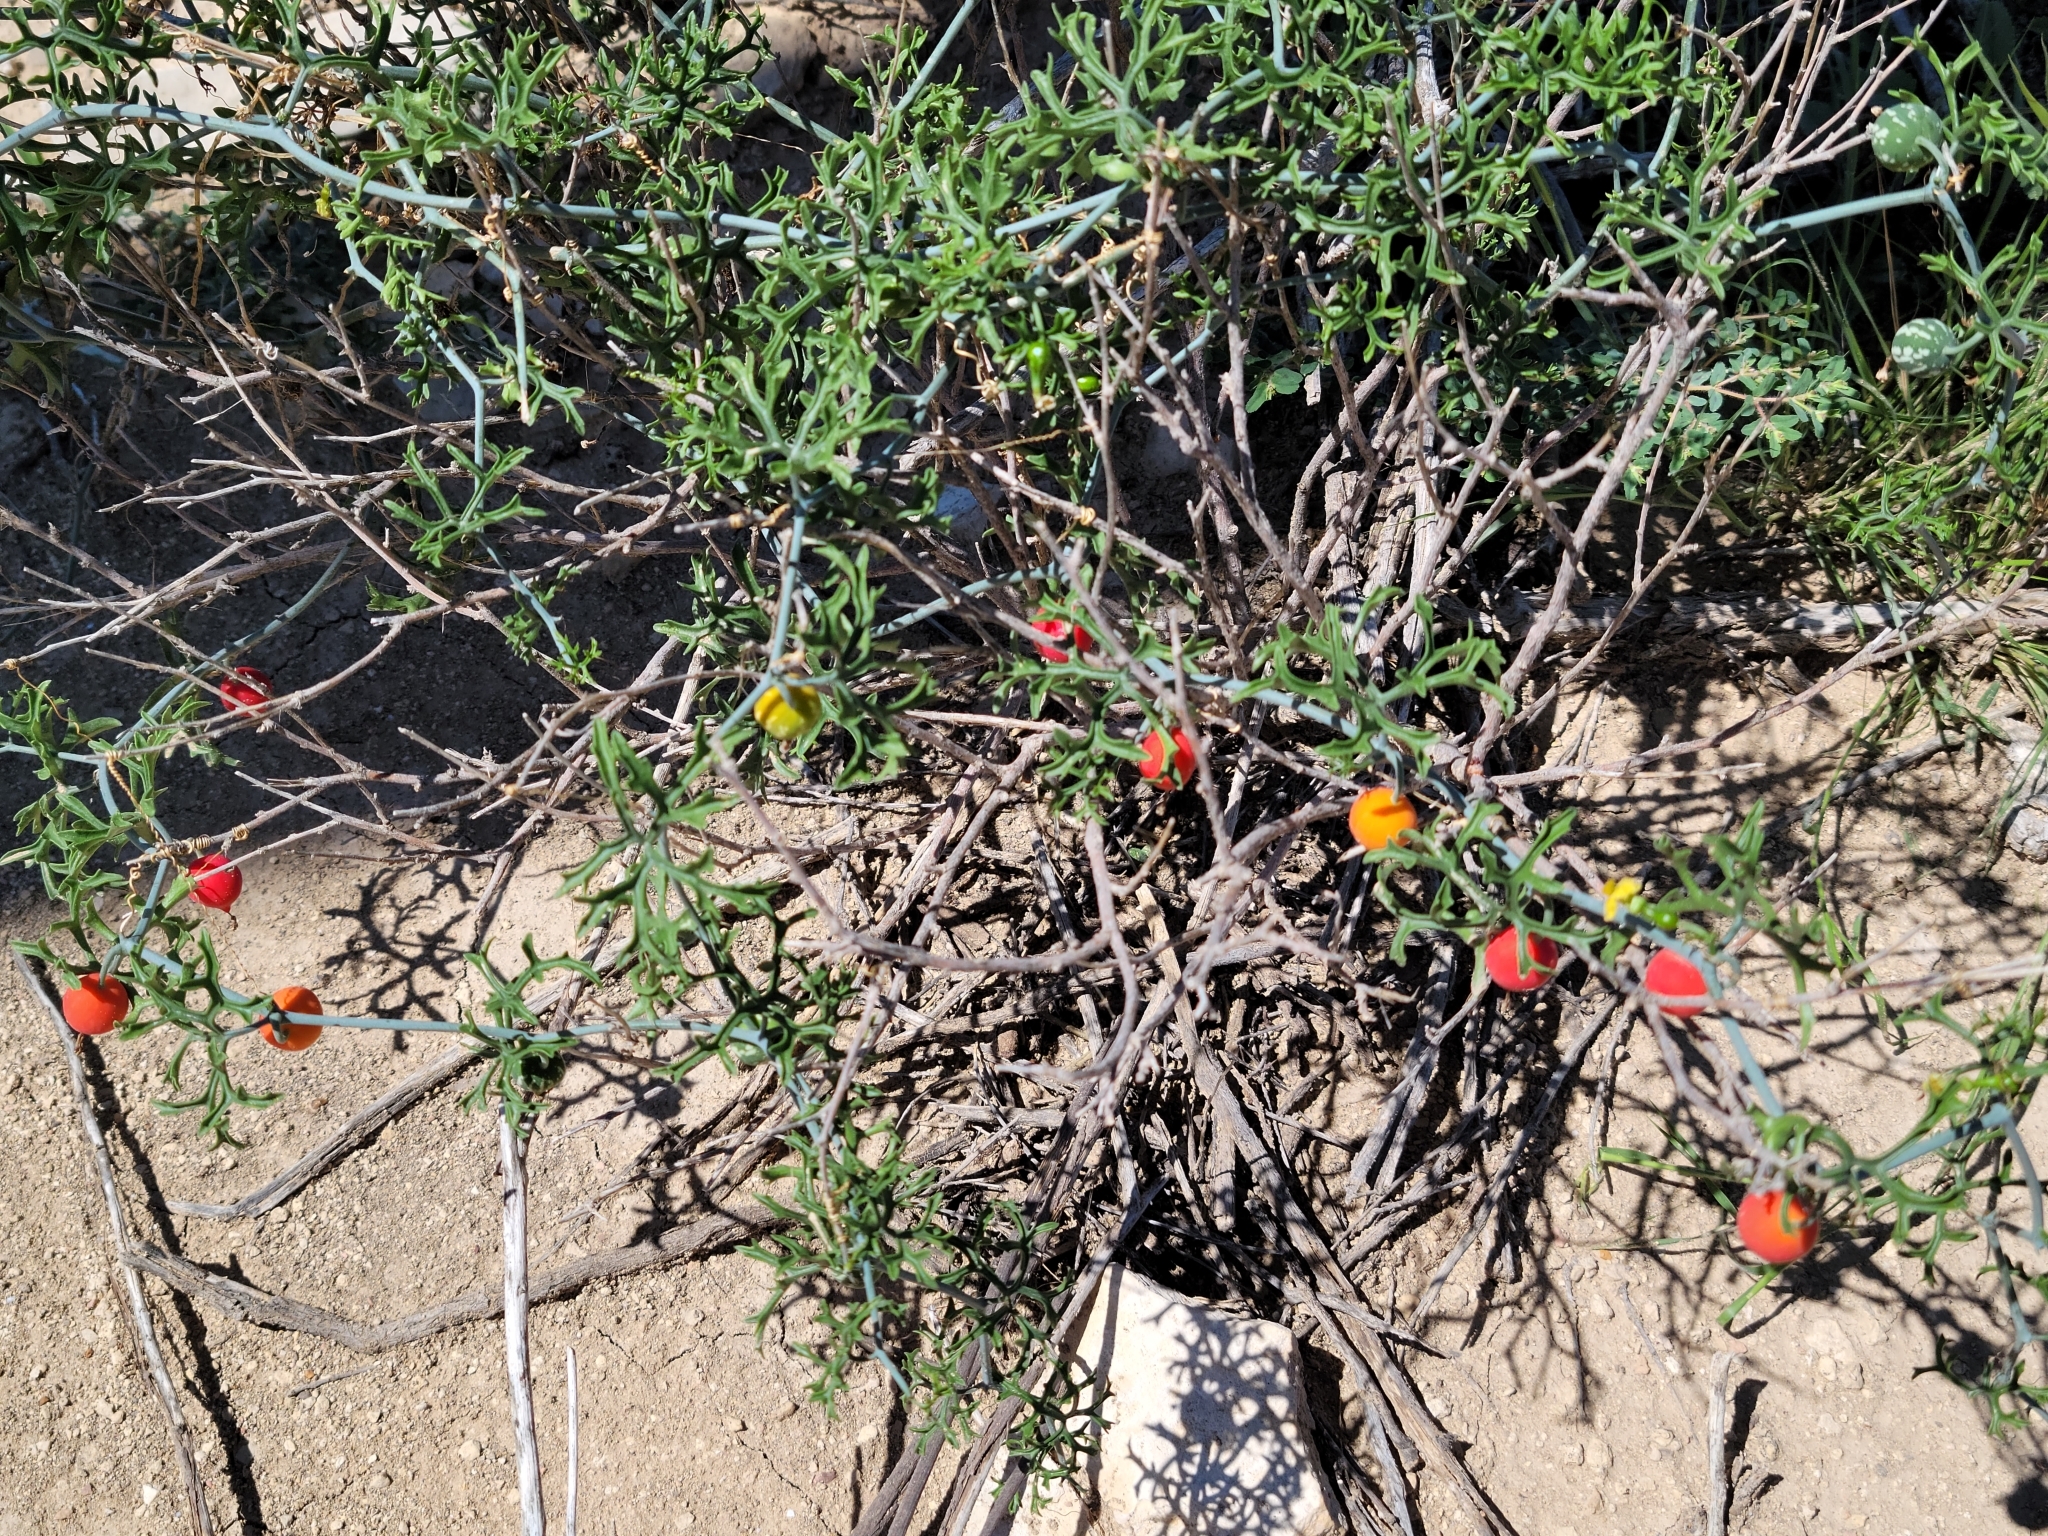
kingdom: Plantae
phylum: Tracheophyta
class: Magnoliopsida
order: Cucurbitales
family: Cucurbitaceae
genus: Ibervillea
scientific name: Ibervillea tenuisecta
